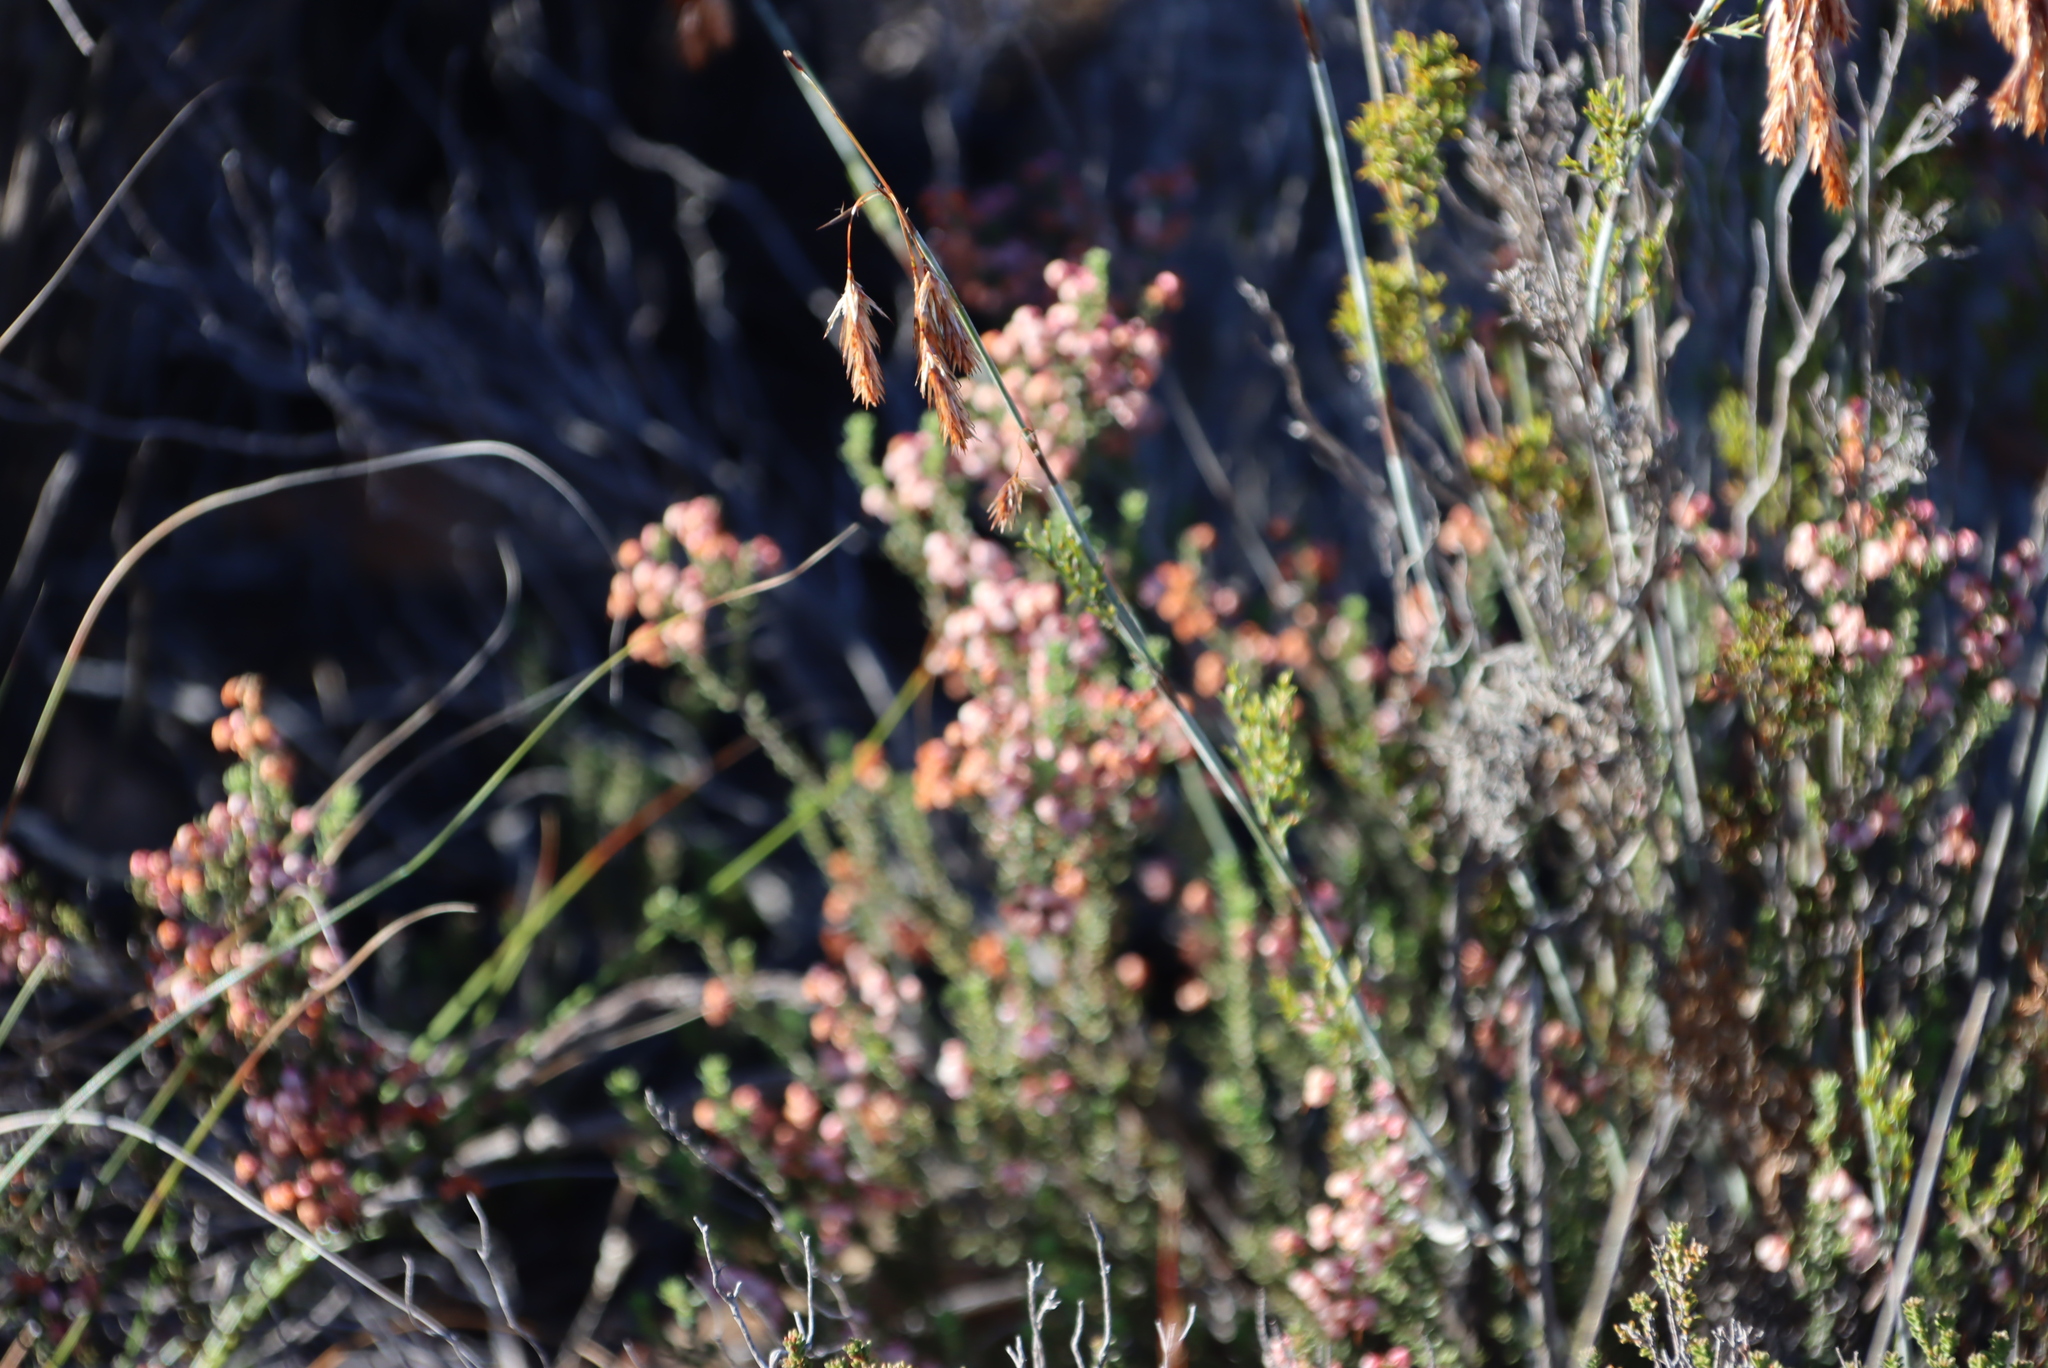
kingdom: Plantae
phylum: Tracheophyta
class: Magnoliopsida
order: Ericales
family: Ericaceae
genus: Erica
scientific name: Erica umbelliflora
